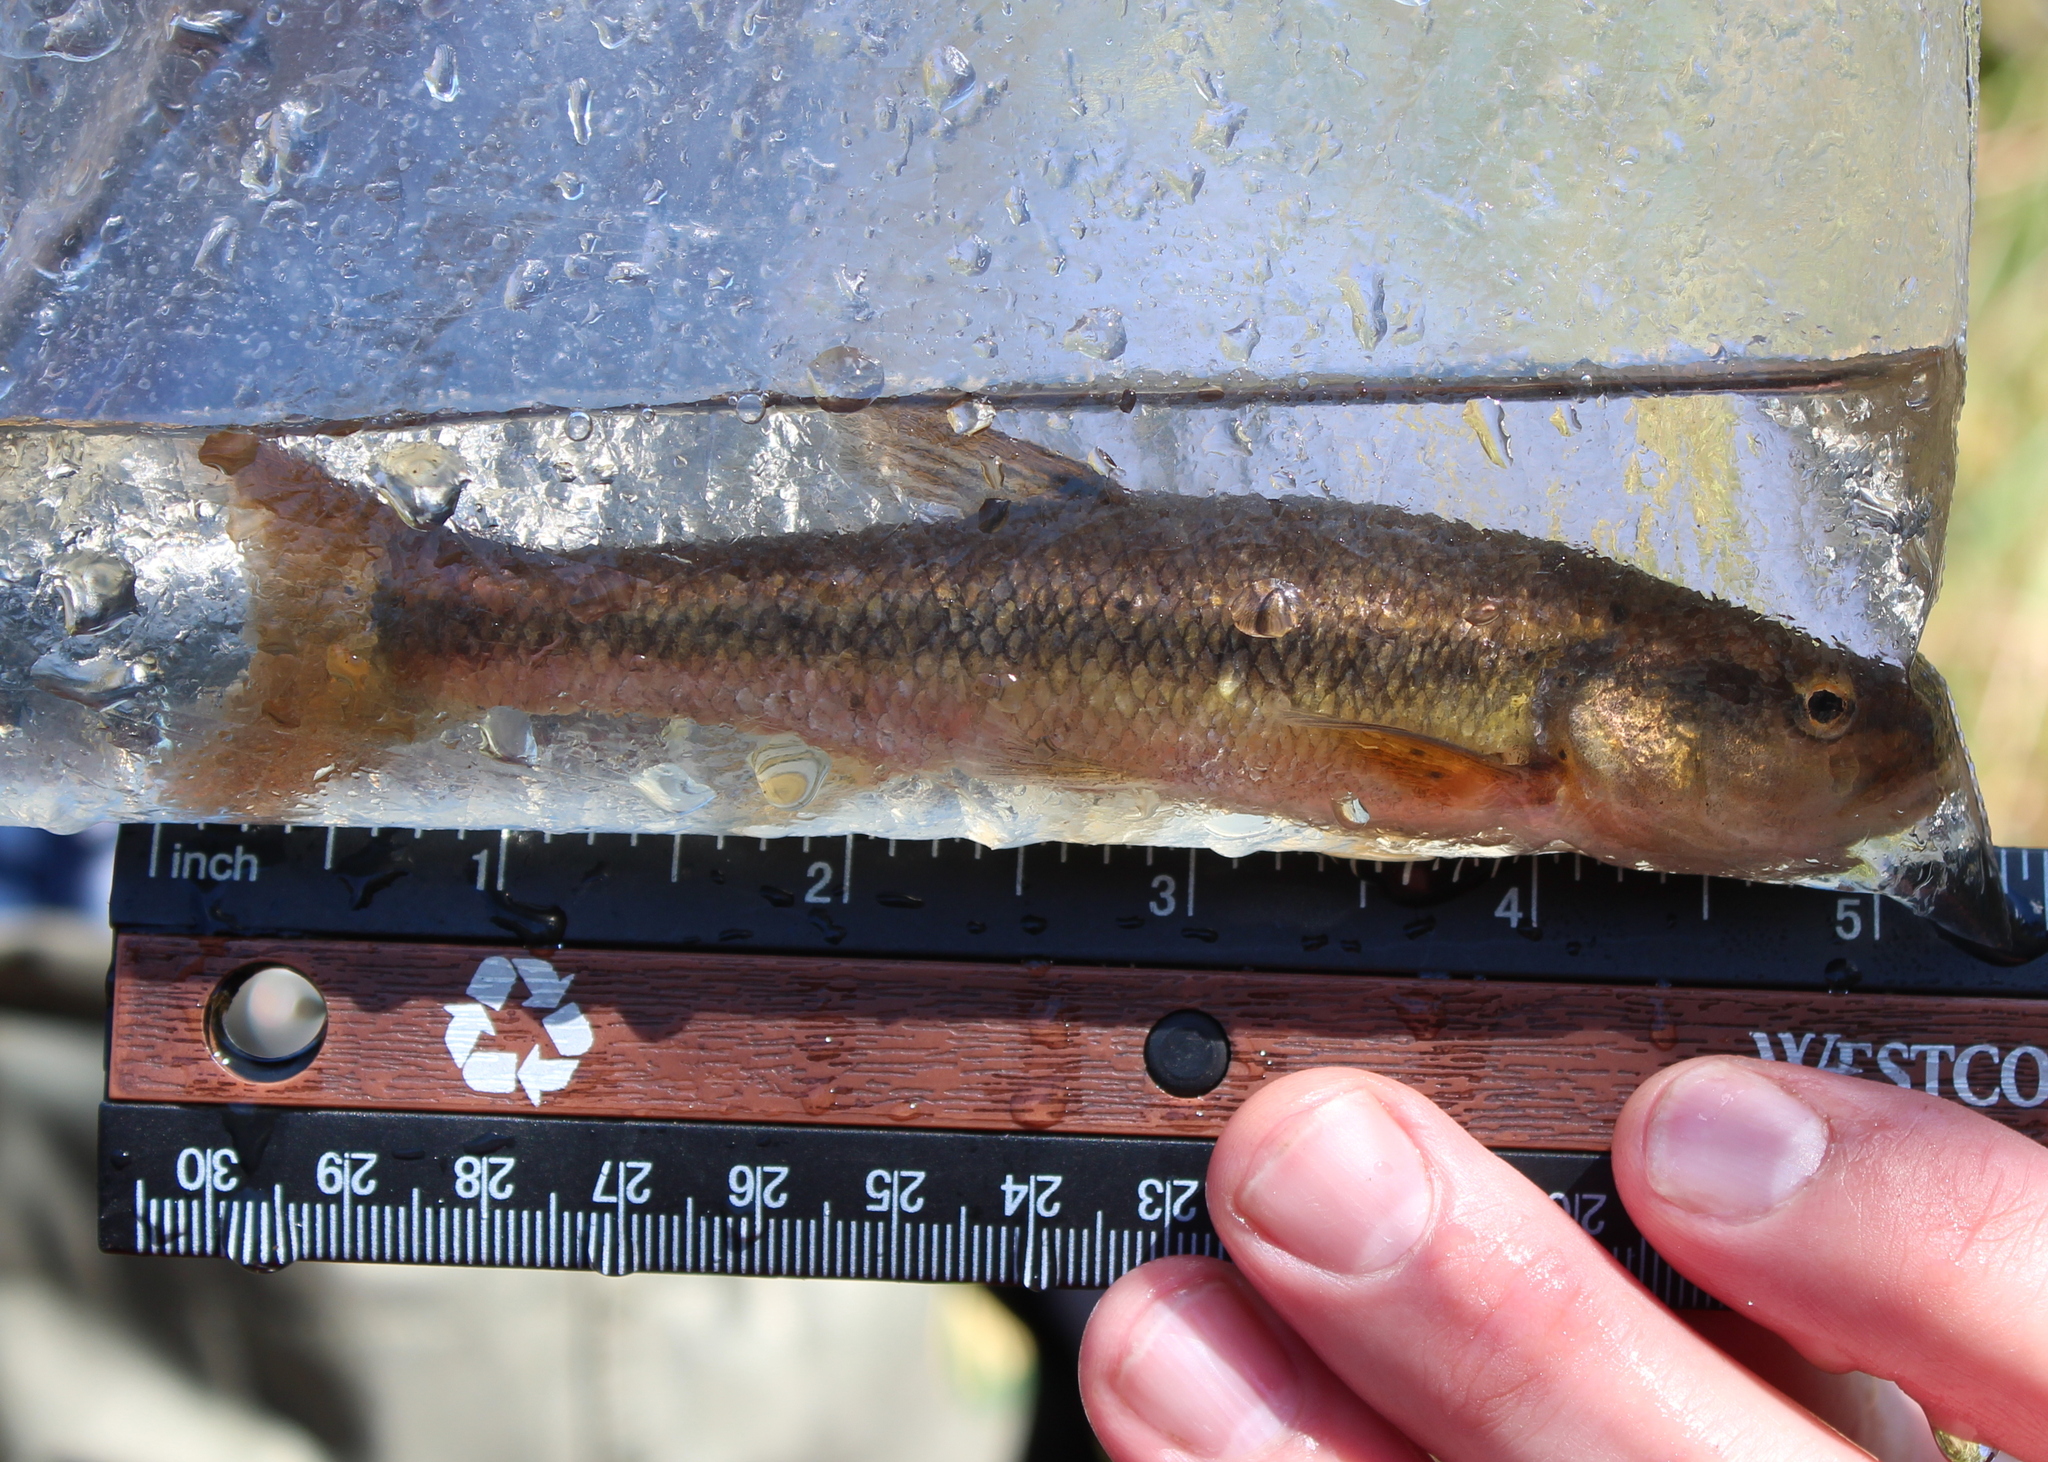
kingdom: Animalia
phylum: Chordata
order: Cypriniformes
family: Cyprinidae
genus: Semotilus
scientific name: Semotilus atromaculatus
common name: Creek chub
